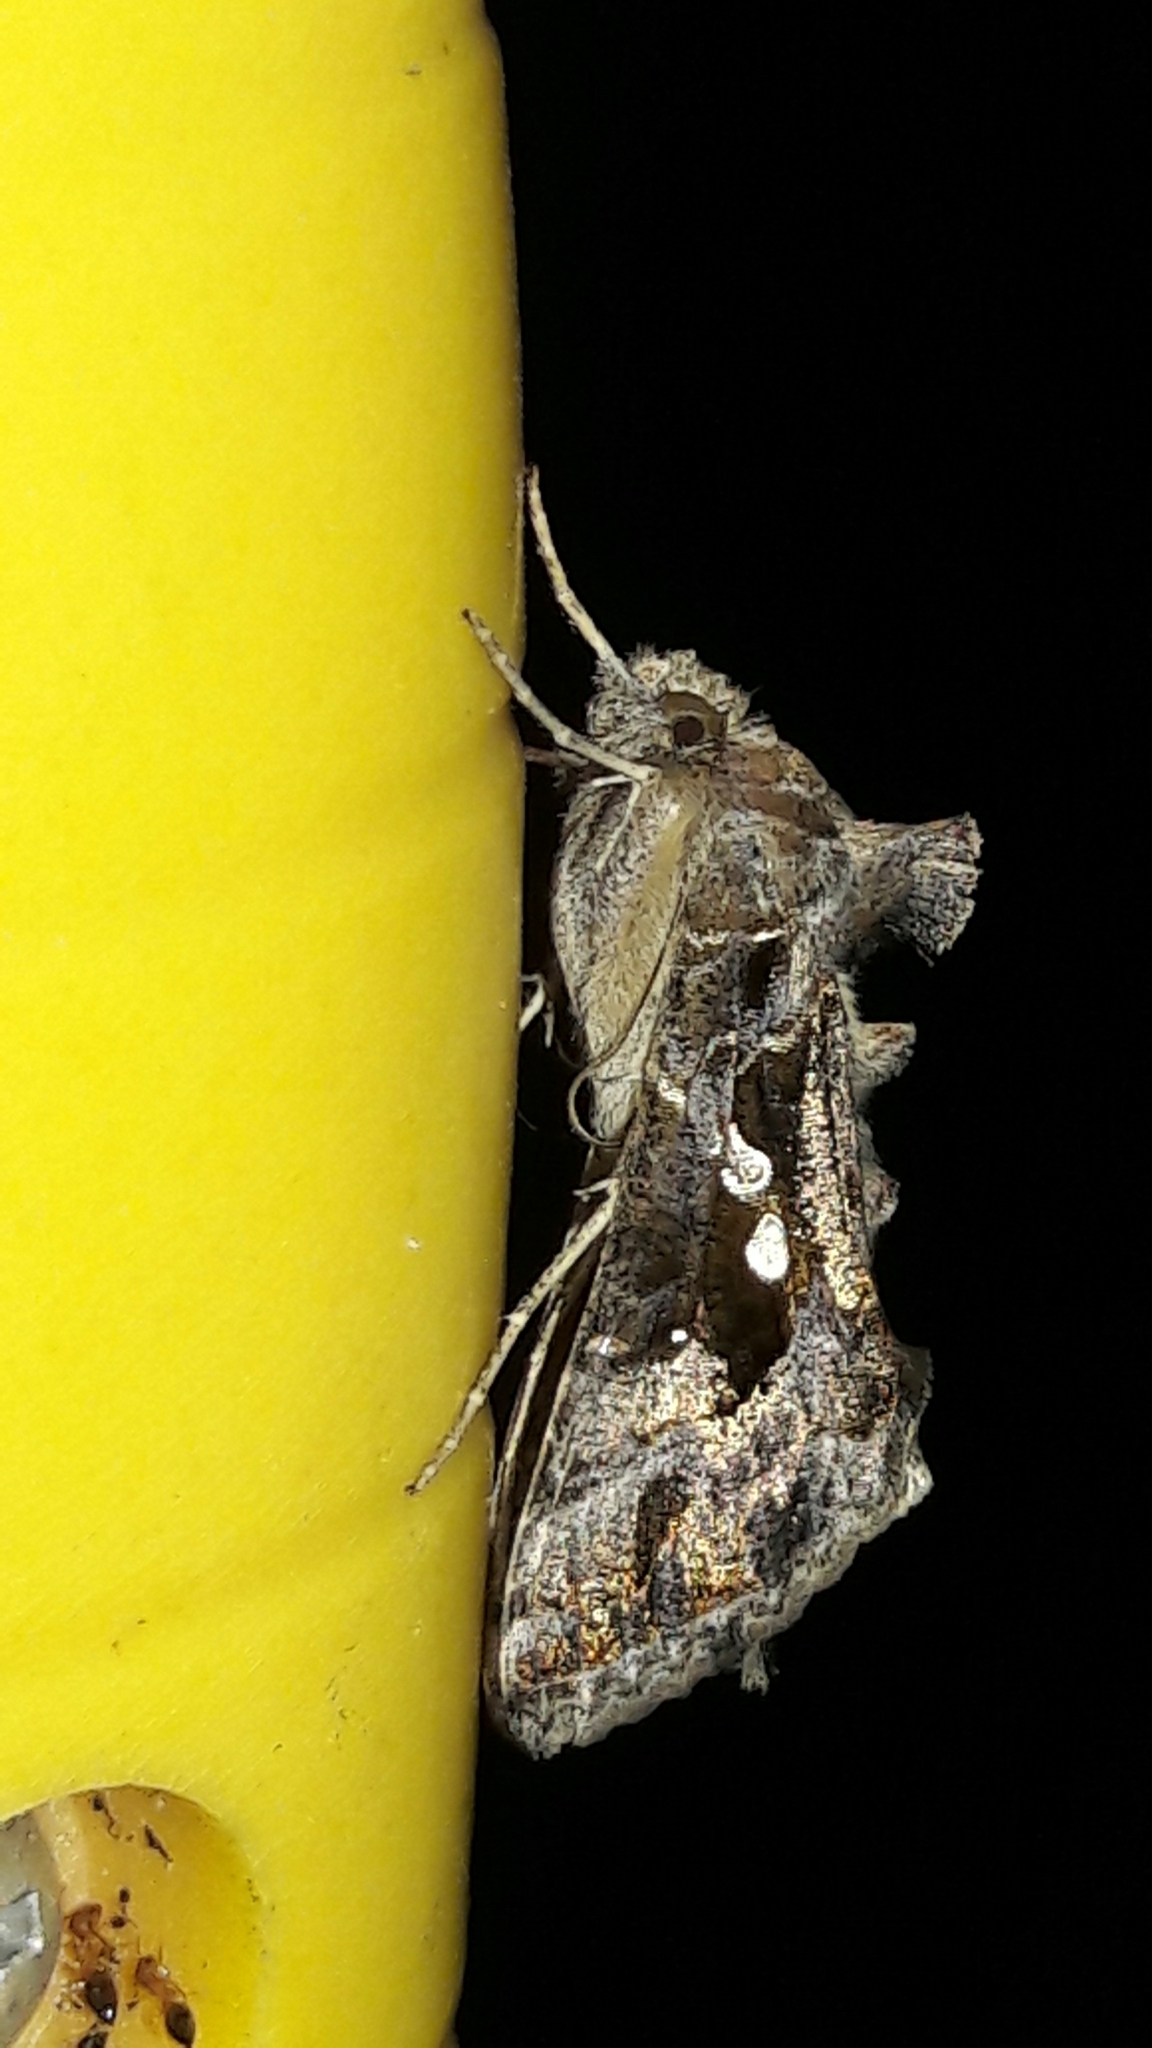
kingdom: Animalia
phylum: Arthropoda
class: Insecta
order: Lepidoptera
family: Noctuidae
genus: Chrysodeixis
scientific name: Chrysodeixis includens
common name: Cutworm moth
